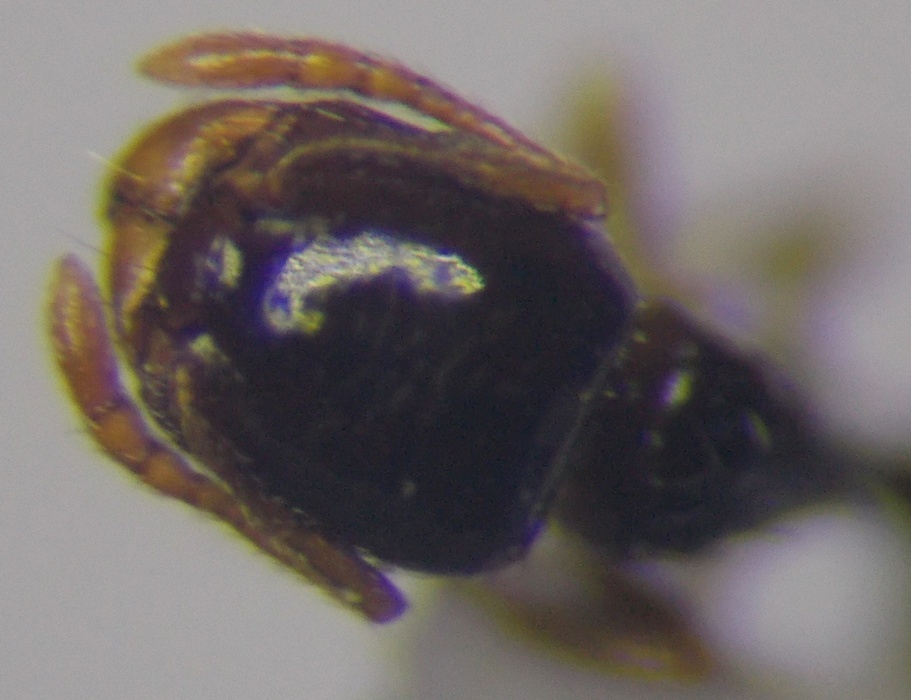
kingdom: Animalia
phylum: Arthropoda
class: Insecta
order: Hymenoptera
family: Formicidae
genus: Tetramorium
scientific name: Tetramorium inerme
